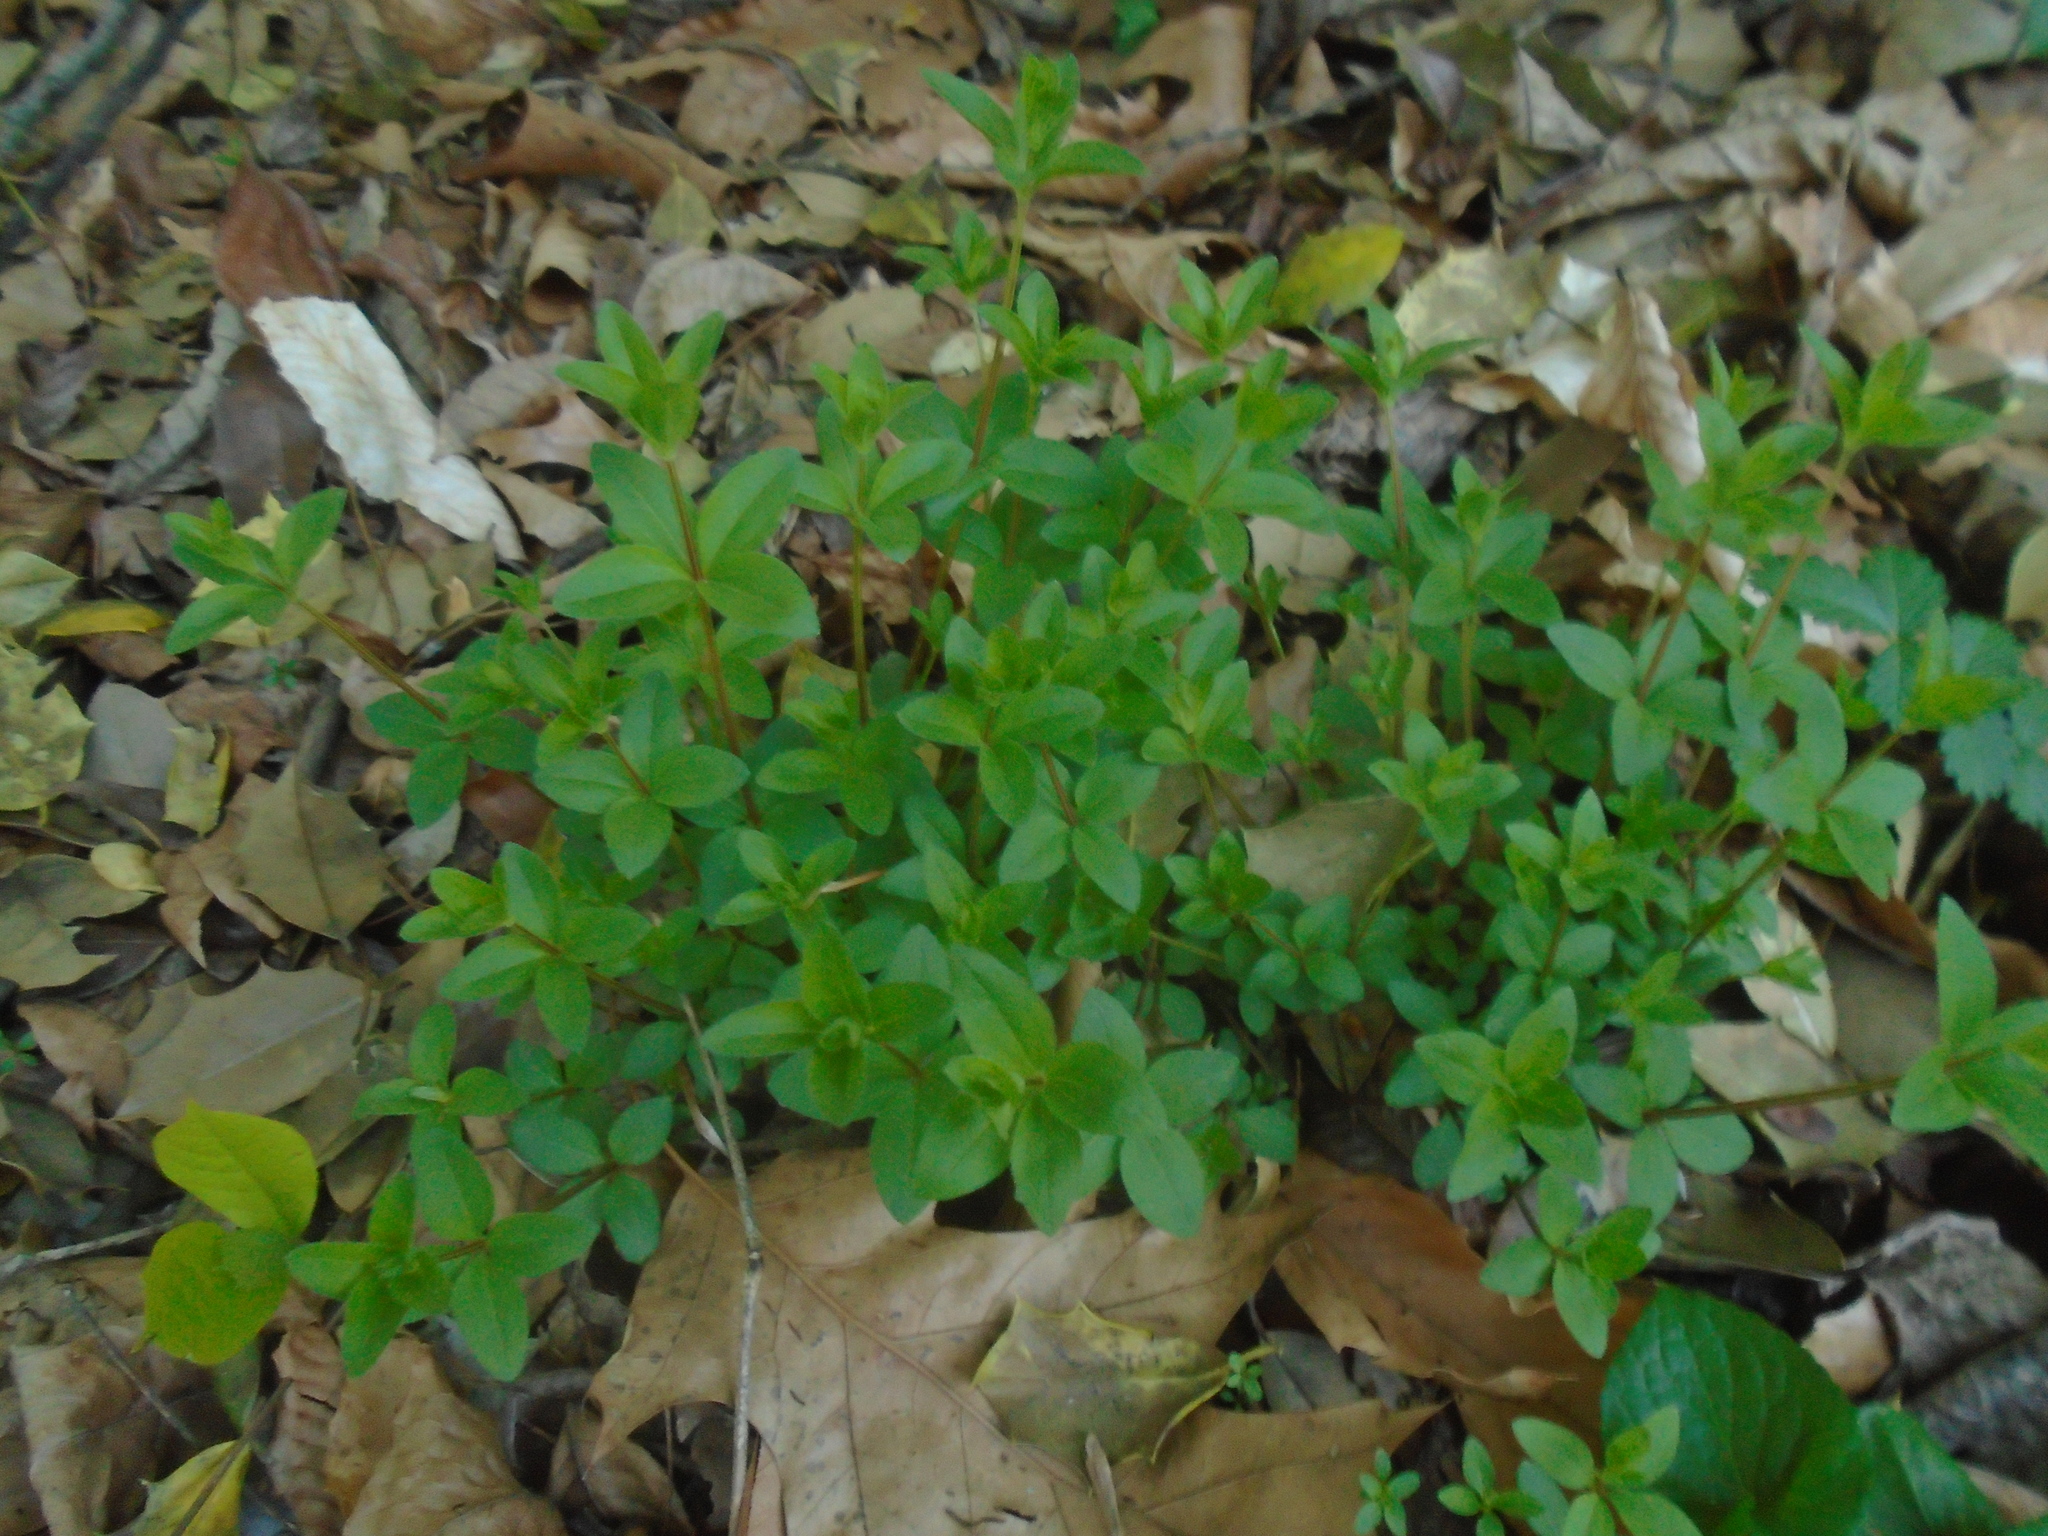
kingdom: Plantae
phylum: Tracheophyta
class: Magnoliopsida
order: Gentianales
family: Rubiaceae
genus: Galium
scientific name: Galium circaezans
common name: Forest bedstraw
